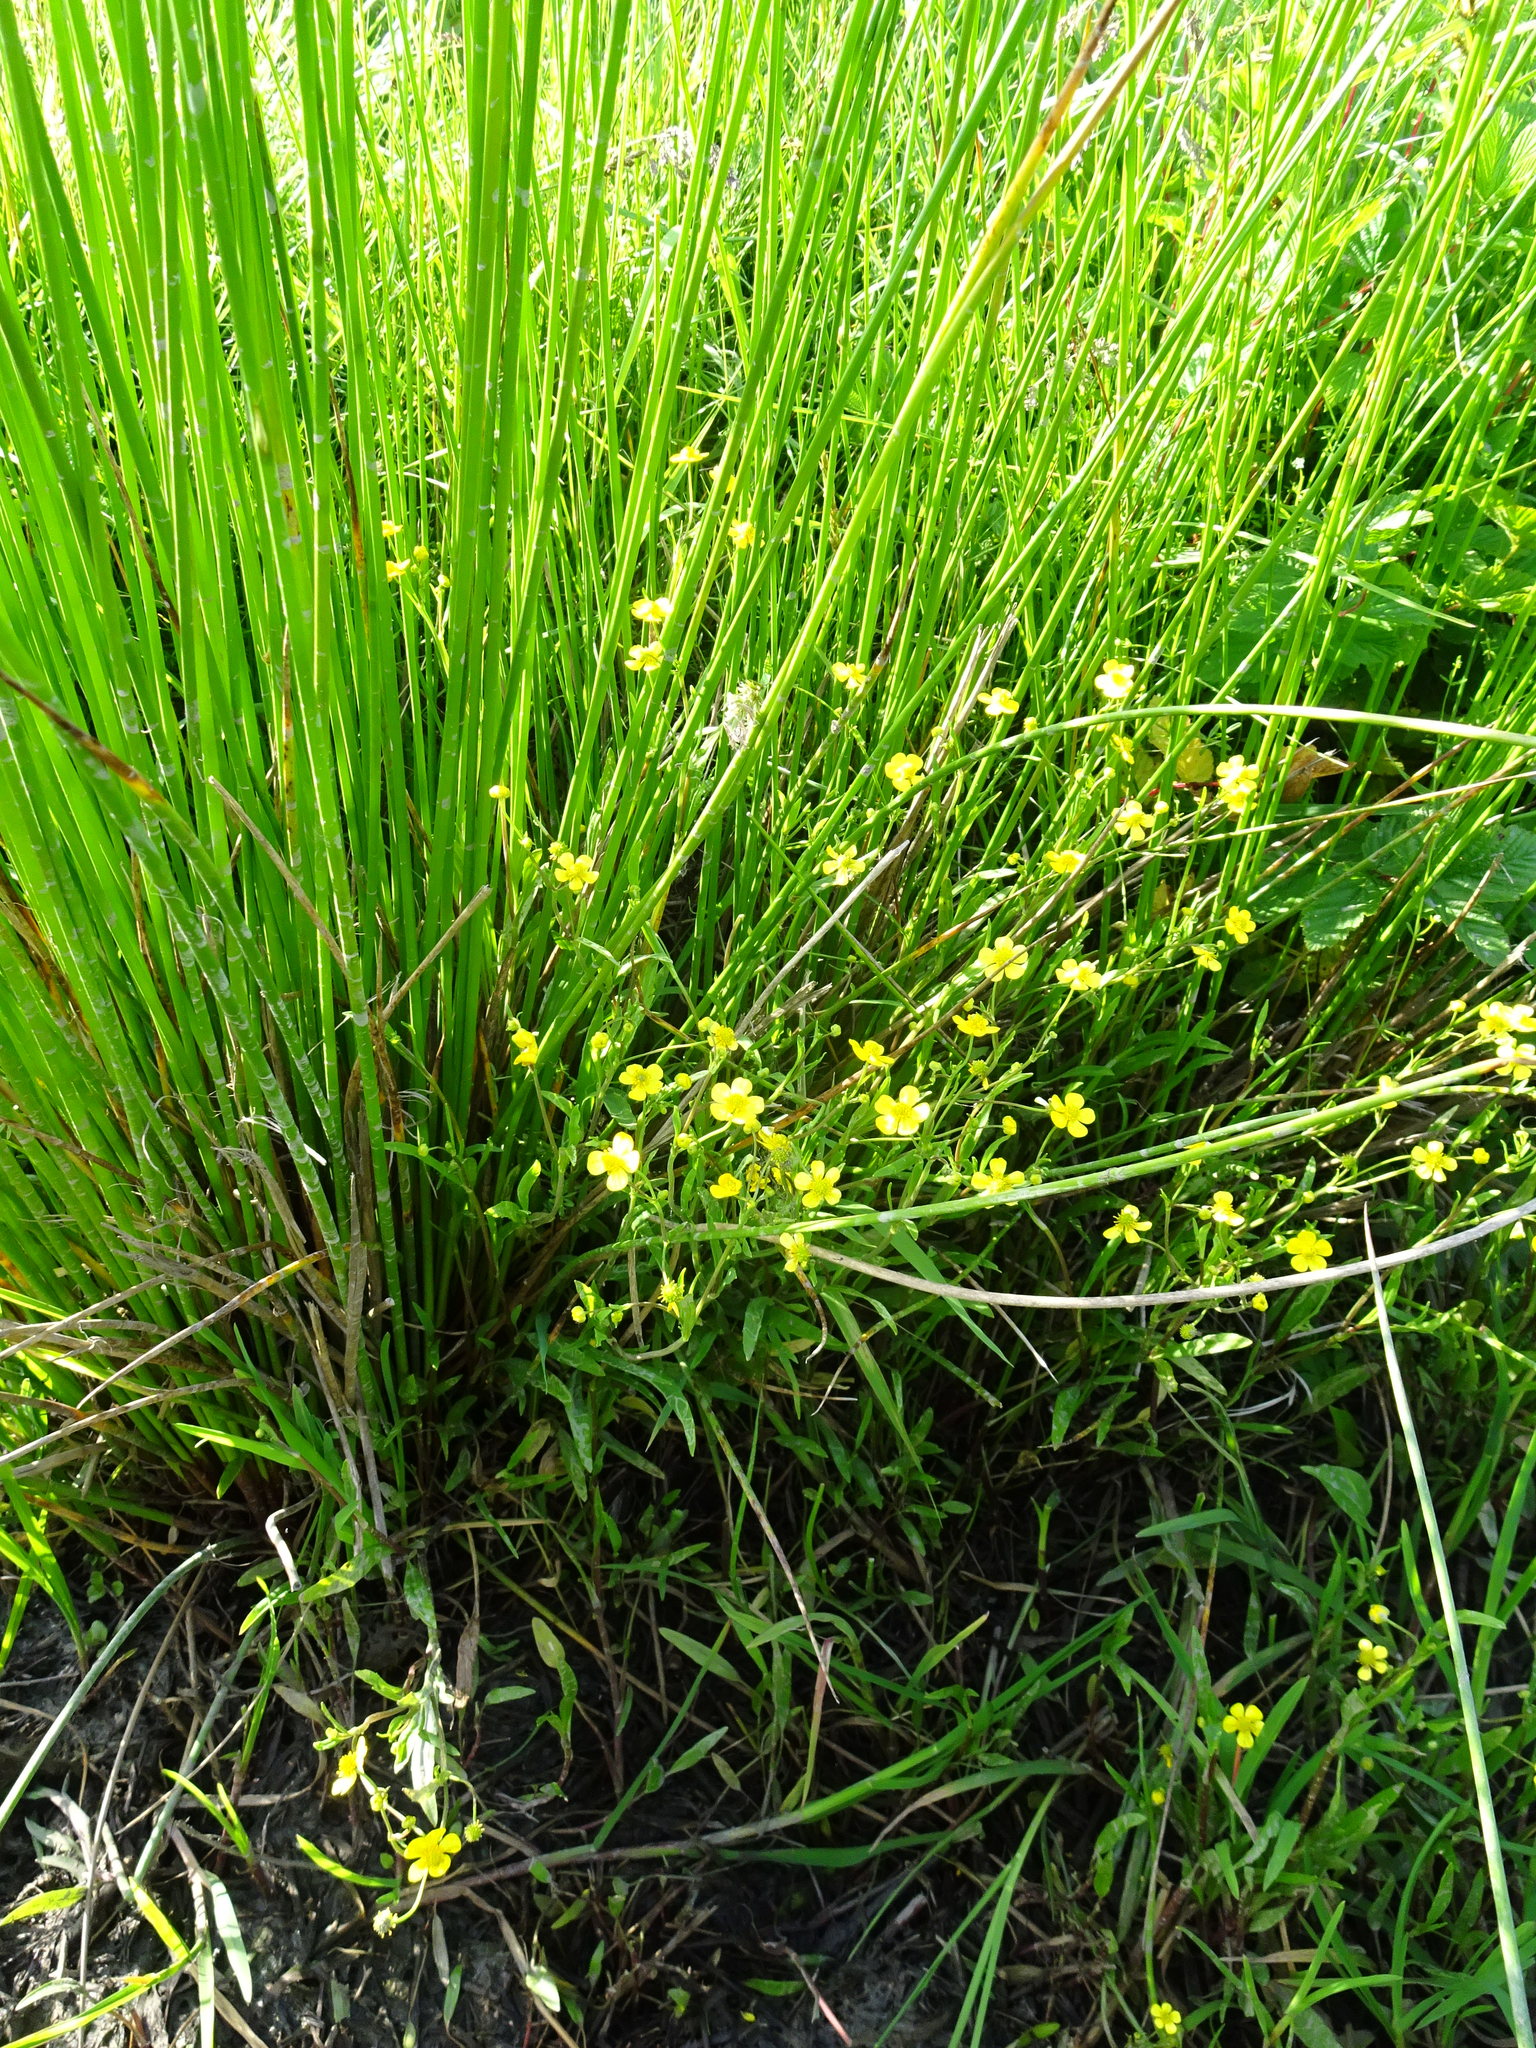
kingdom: Plantae
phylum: Tracheophyta
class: Magnoliopsida
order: Ranunculales
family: Ranunculaceae
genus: Ranunculus
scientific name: Ranunculus flammula
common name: Lesser spearwort
